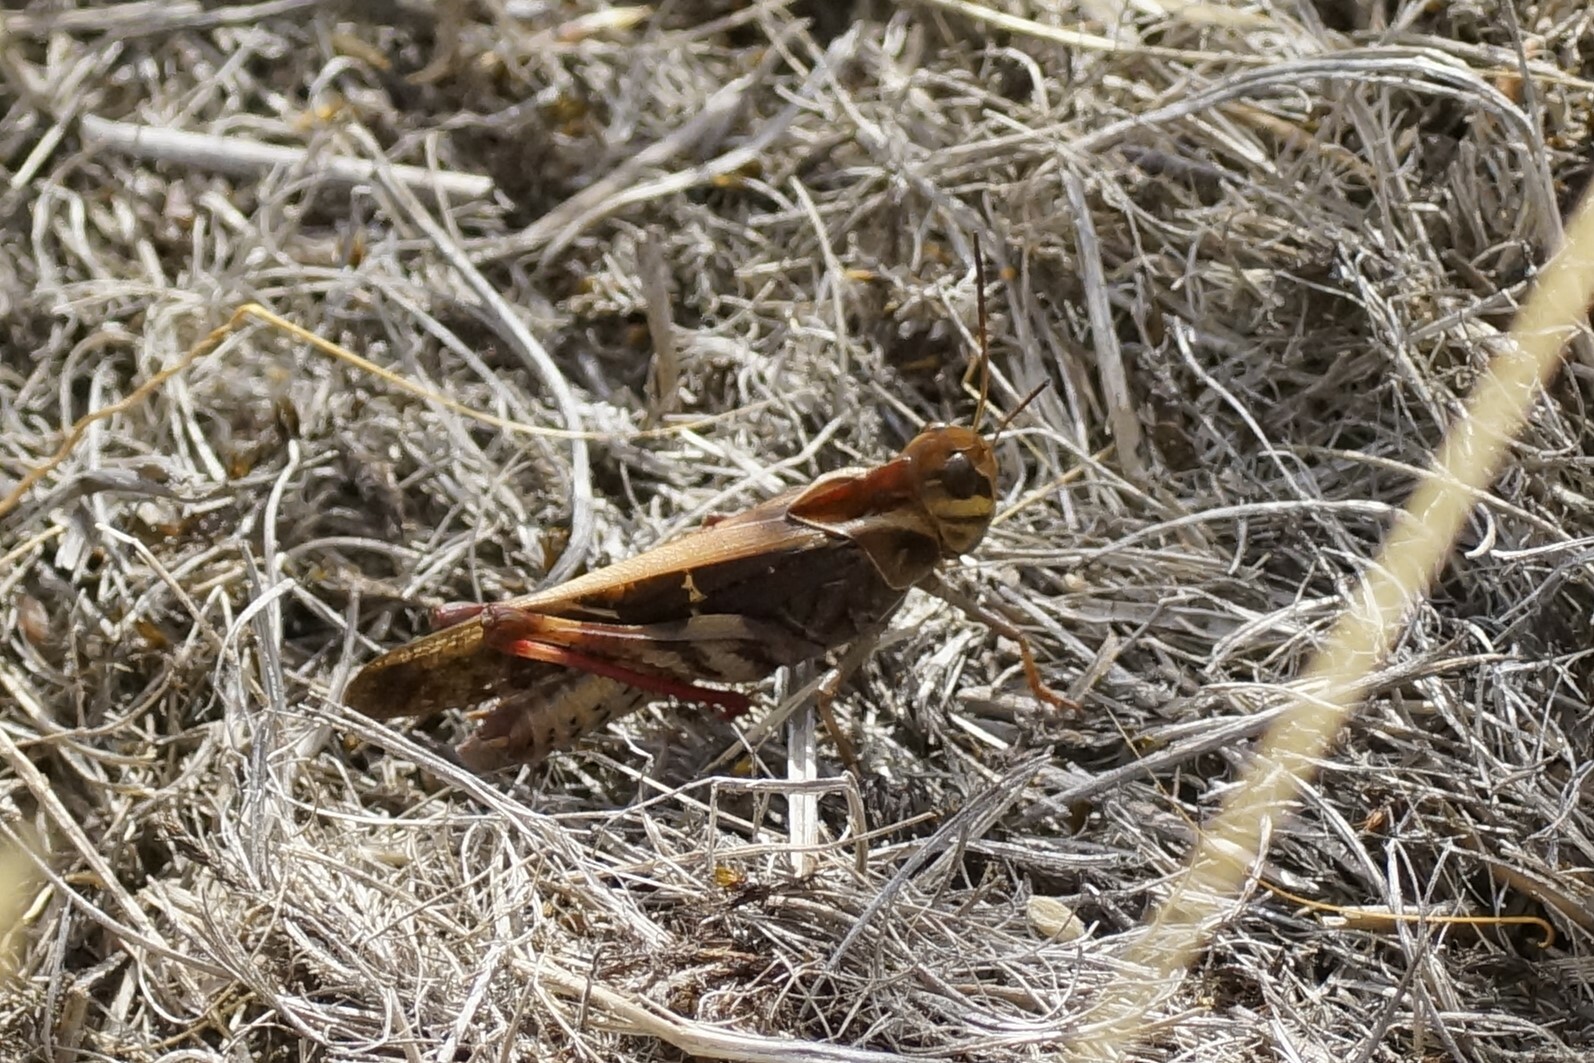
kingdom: Animalia
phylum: Arthropoda
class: Insecta
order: Orthoptera
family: Acrididae
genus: Gastrimargus
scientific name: Gastrimargus musicus
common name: Yellow-winged locust
